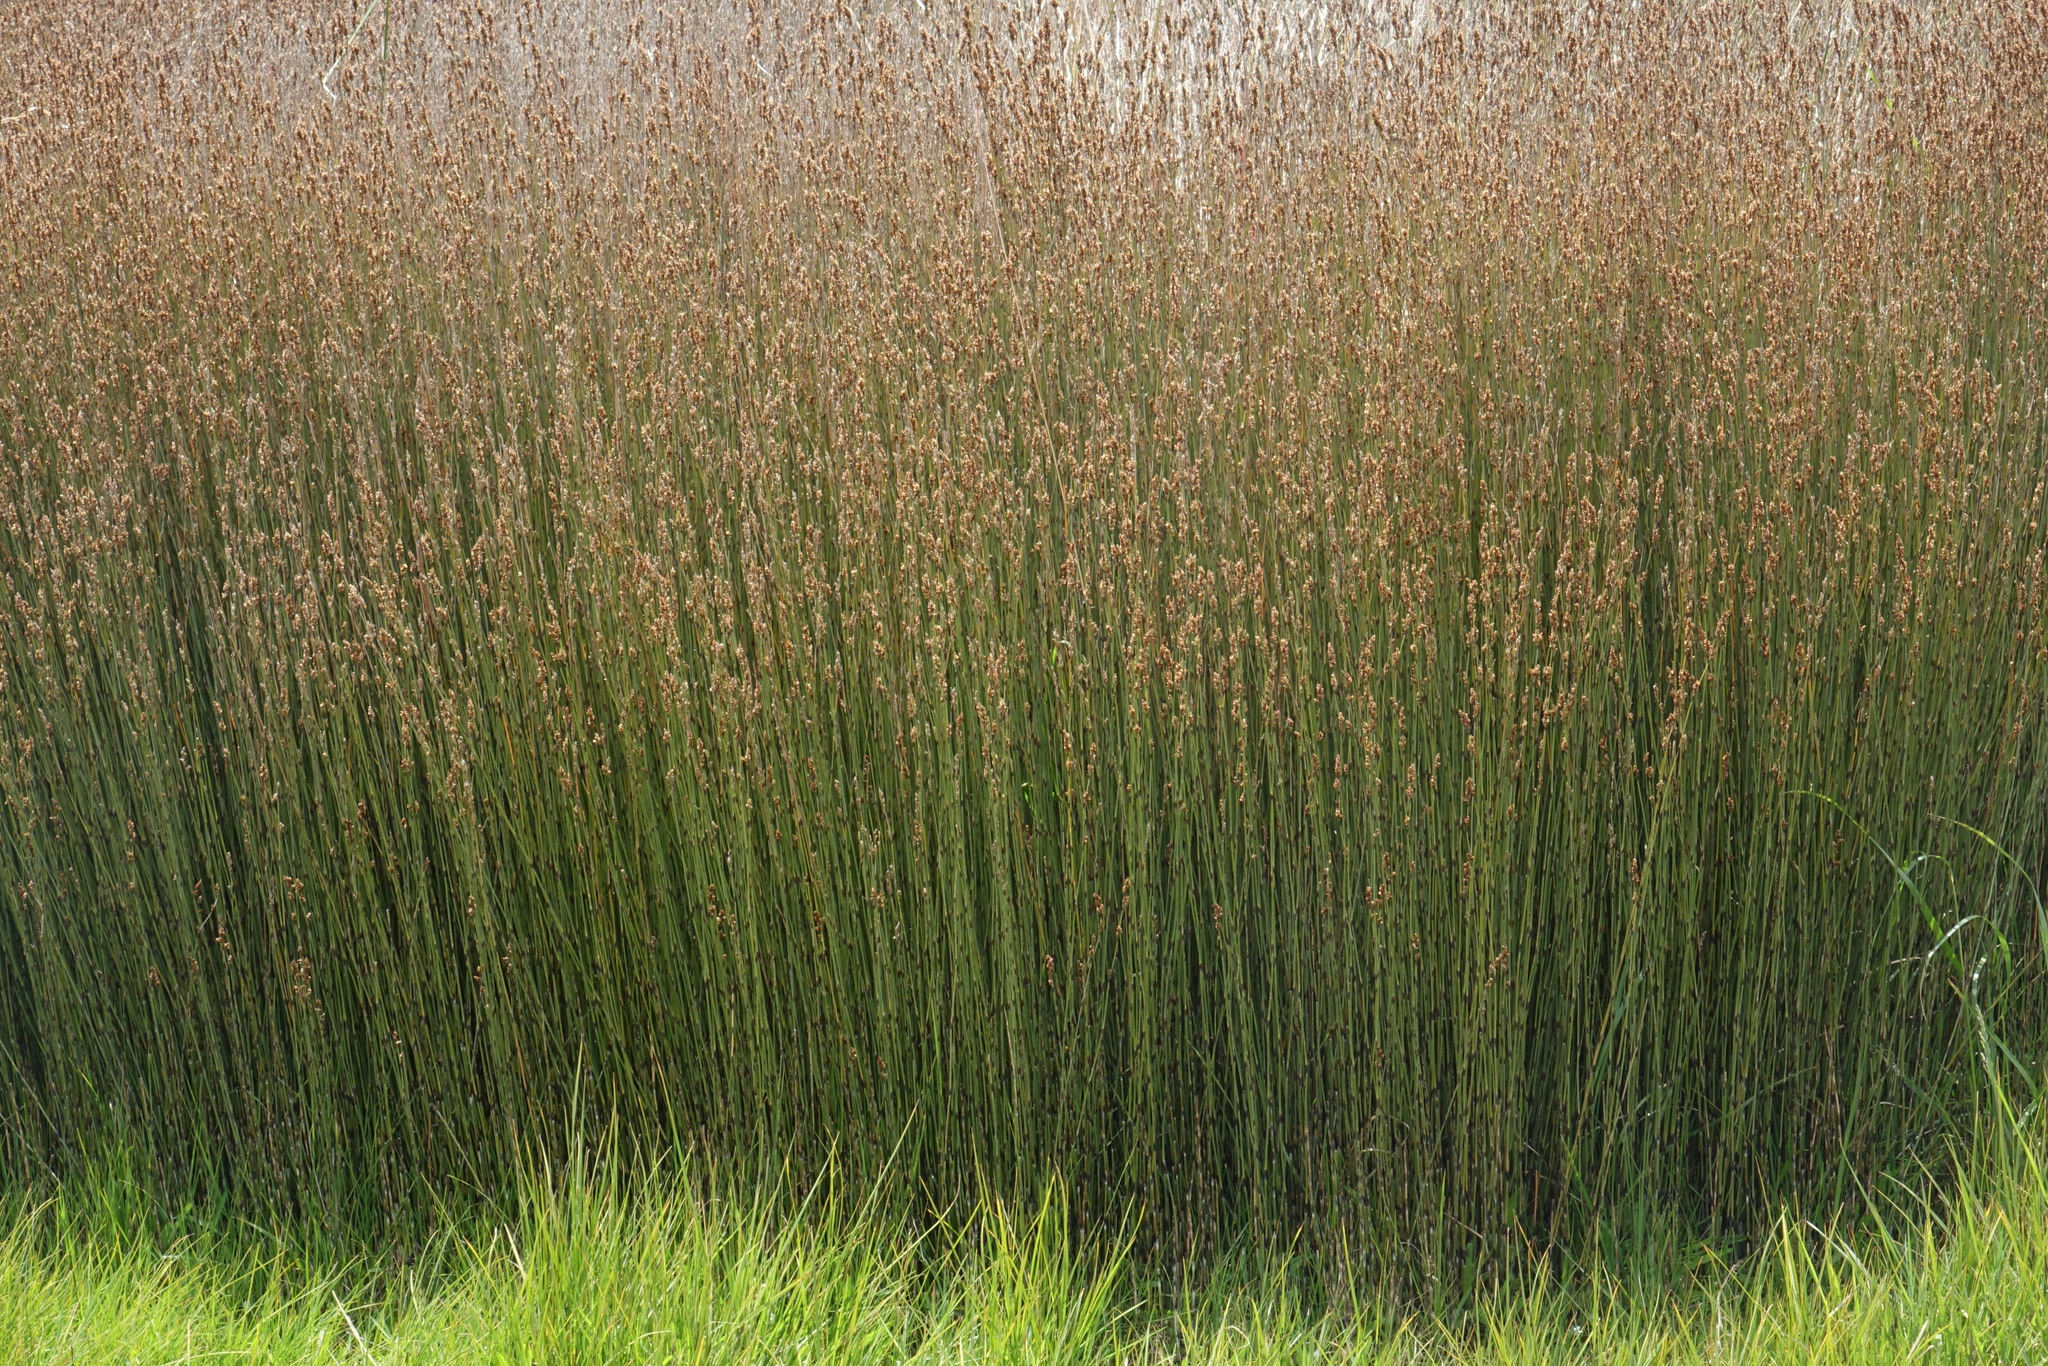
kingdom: Plantae
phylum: Tracheophyta
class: Liliopsida
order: Poales
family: Restionaceae
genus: Apodasmia
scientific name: Apodasmia similis
